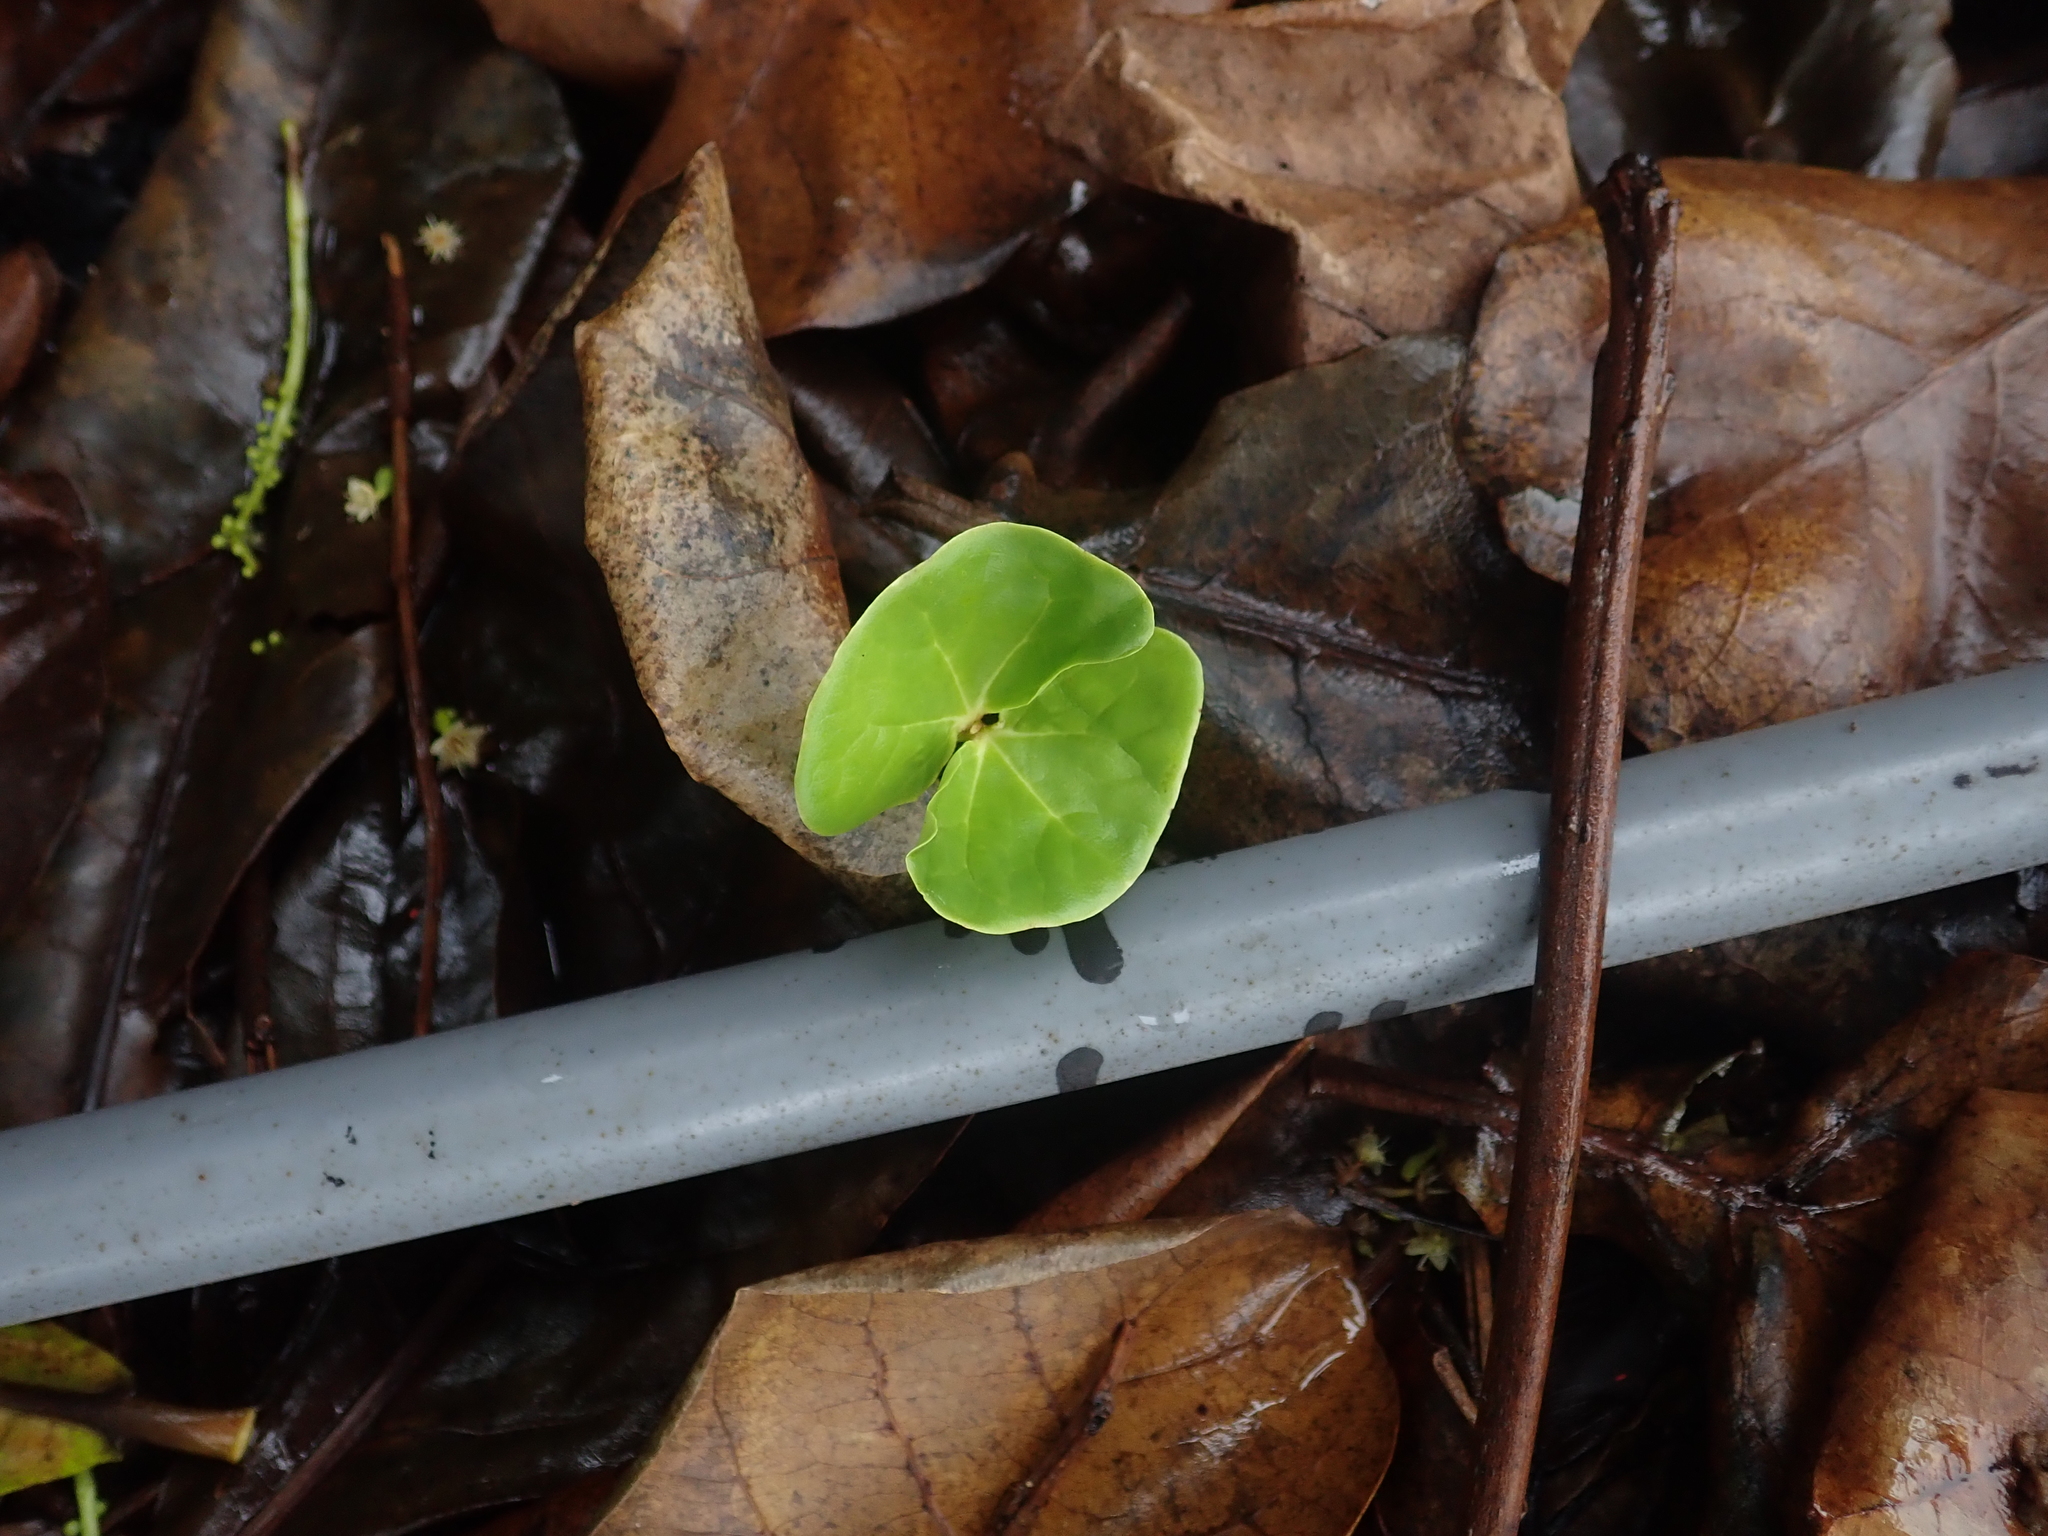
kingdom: Plantae
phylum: Tracheophyta
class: Magnoliopsida
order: Myrtales
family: Combretaceae
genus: Terminalia
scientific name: Terminalia catappa
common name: Tropical almond
